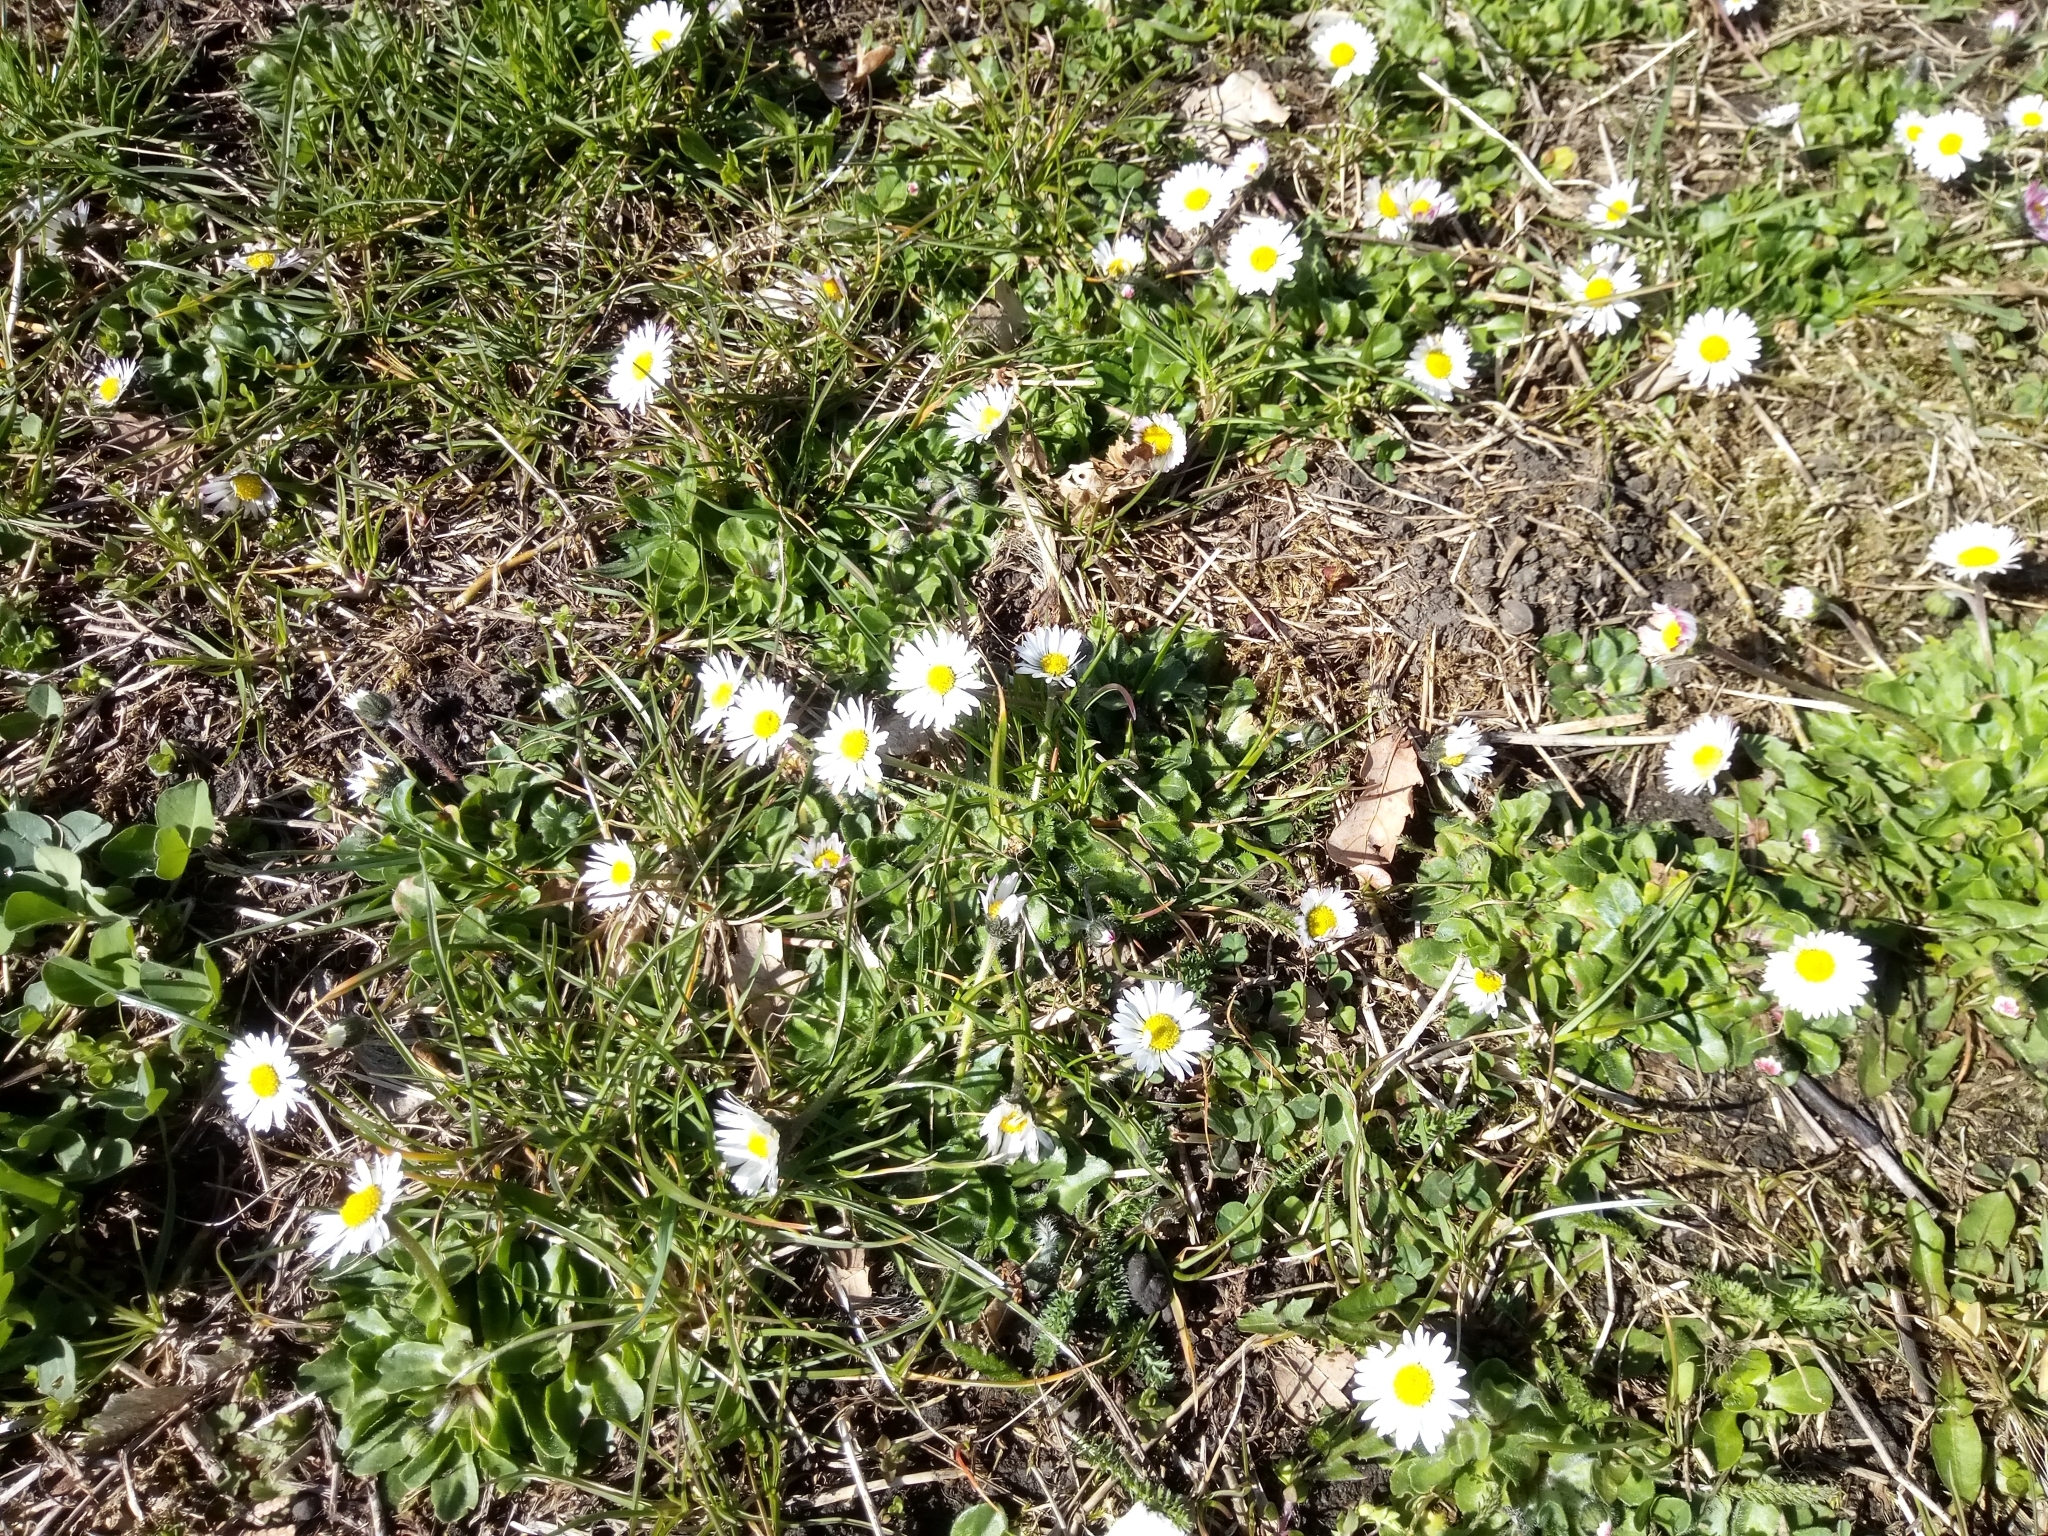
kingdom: Plantae
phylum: Tracheophyta
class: Magnoliopsida
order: Asterales
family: Asteraceae
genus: Bellis
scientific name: Bellis perennis
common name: Lawndaisy
